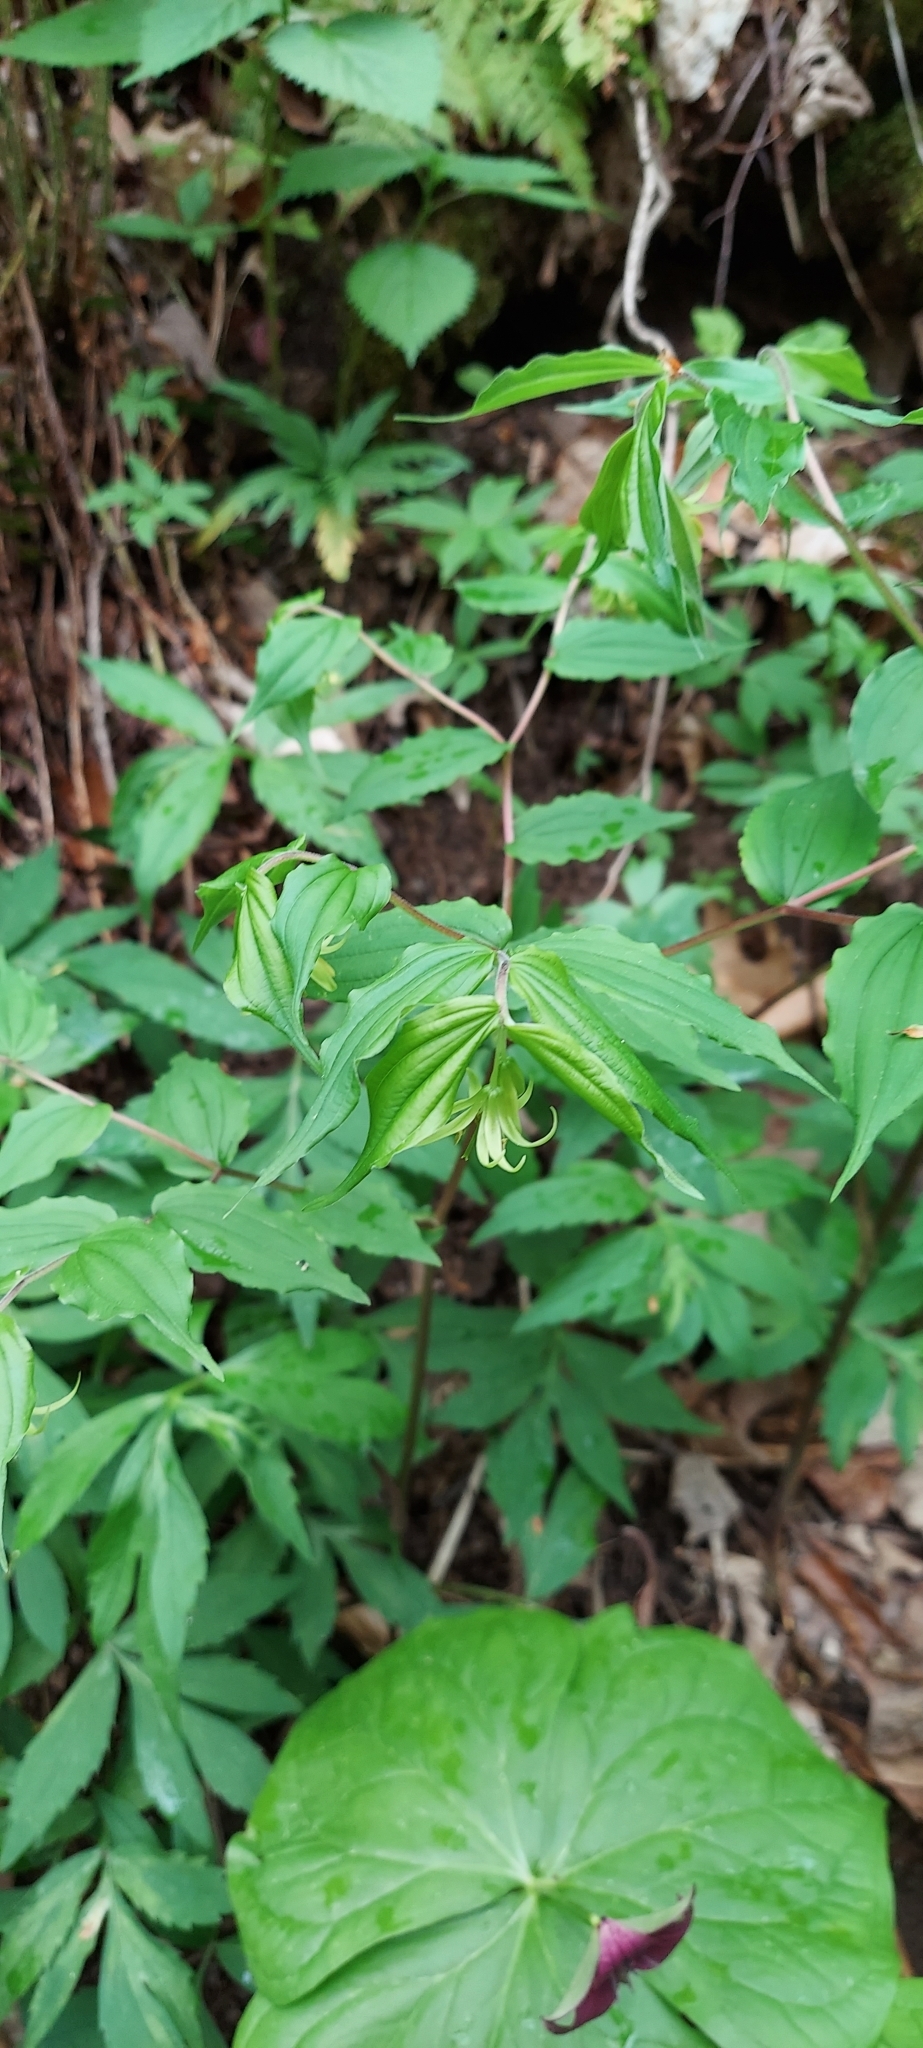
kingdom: Plantae
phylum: Tracheophyta
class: Liliopsida
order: Liliales
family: Liliaceae
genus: Prosartes
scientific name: Prosartes lanuginosa
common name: Hairy mandarin
